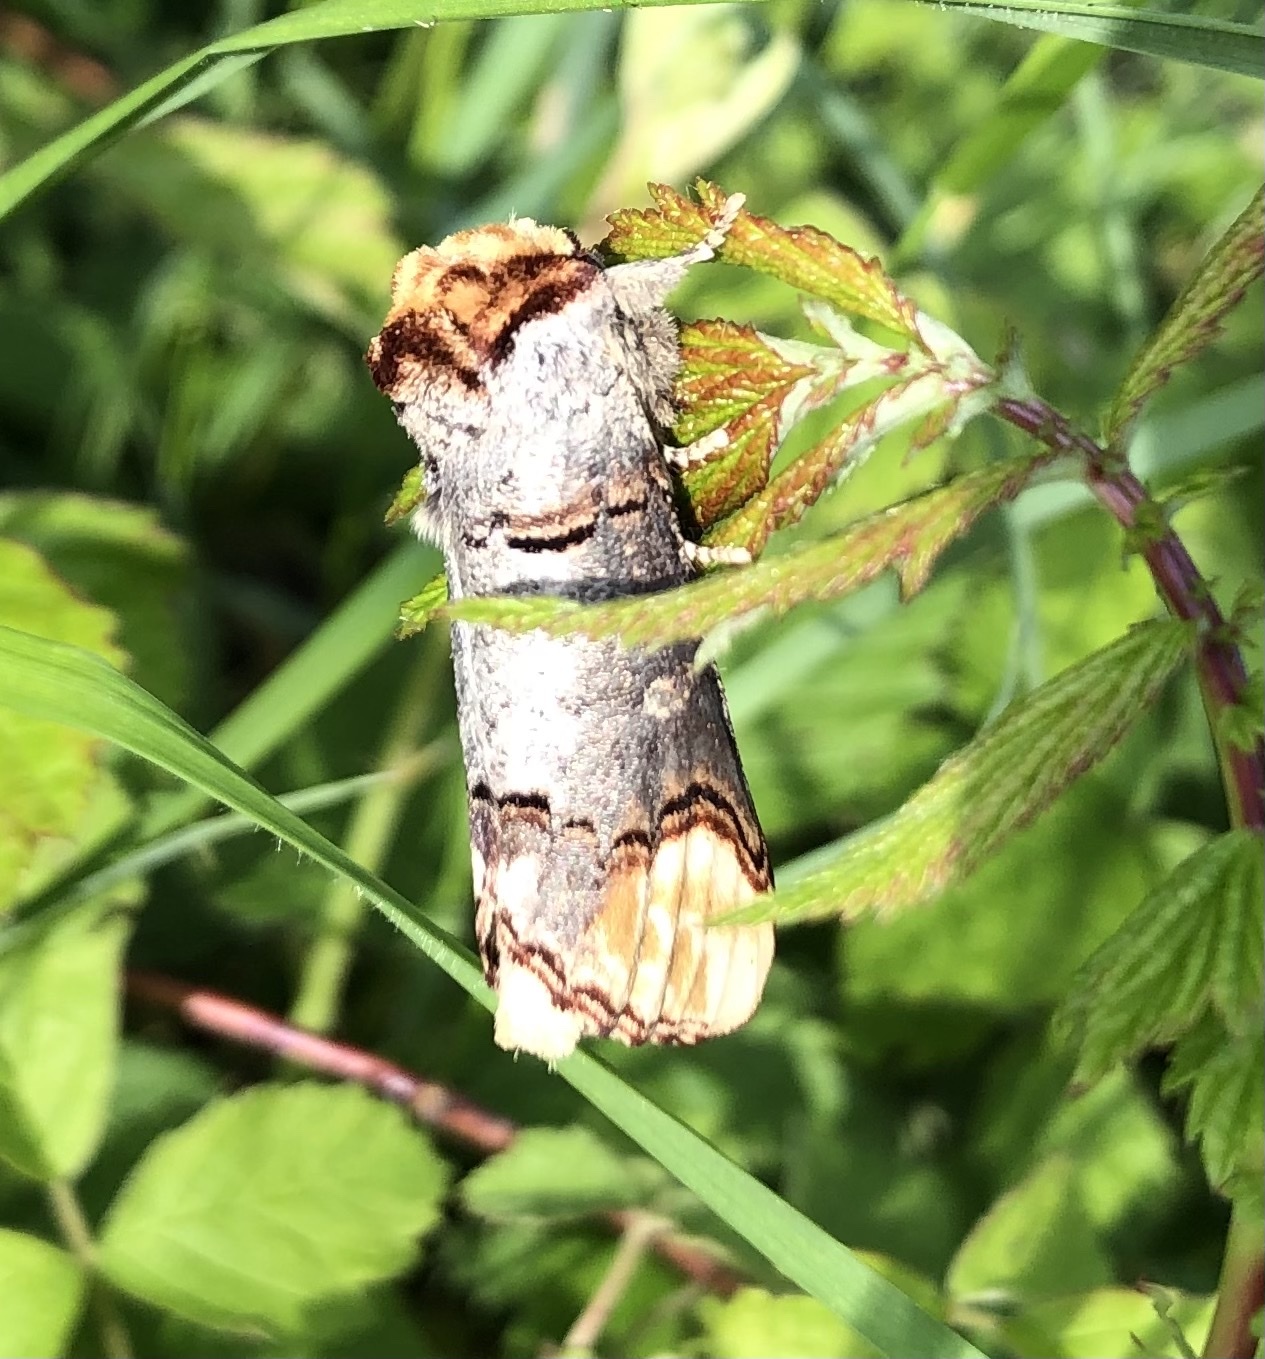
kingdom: Animalia
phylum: Arthropoda
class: Insecta
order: Lepidoptera
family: Notodontidae
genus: Phalera
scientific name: Phalera bucephala
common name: Buff-tip
